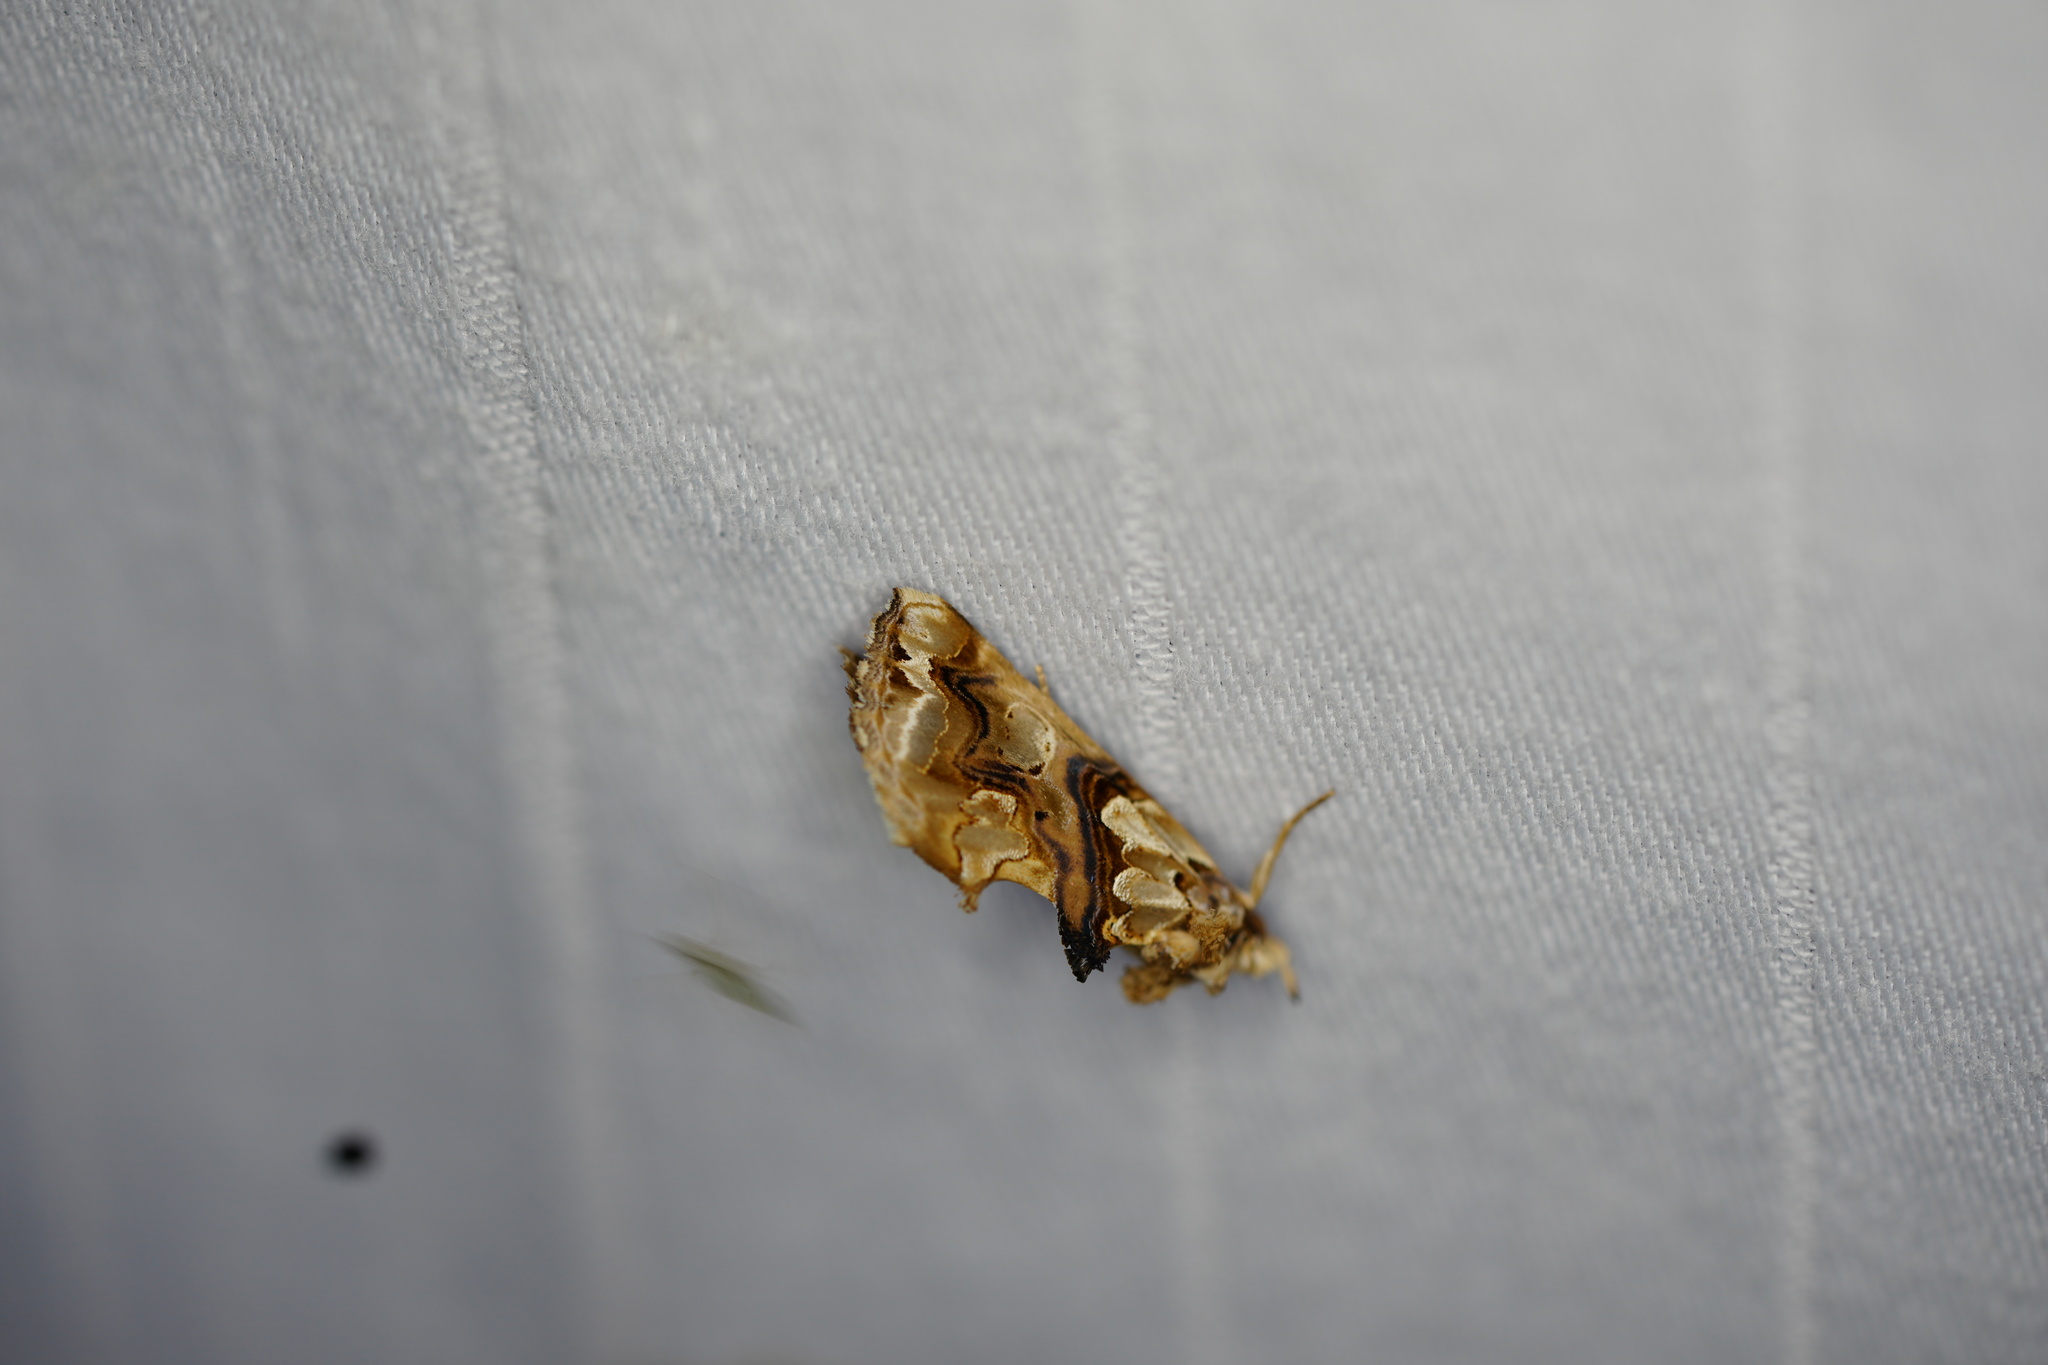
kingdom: Animalia
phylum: Arthropoda
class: Insecta
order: Lepidoptera
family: Erebidae
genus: Plusiodonta
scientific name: Plusiodonta compressipalpis
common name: Moonseed moth
